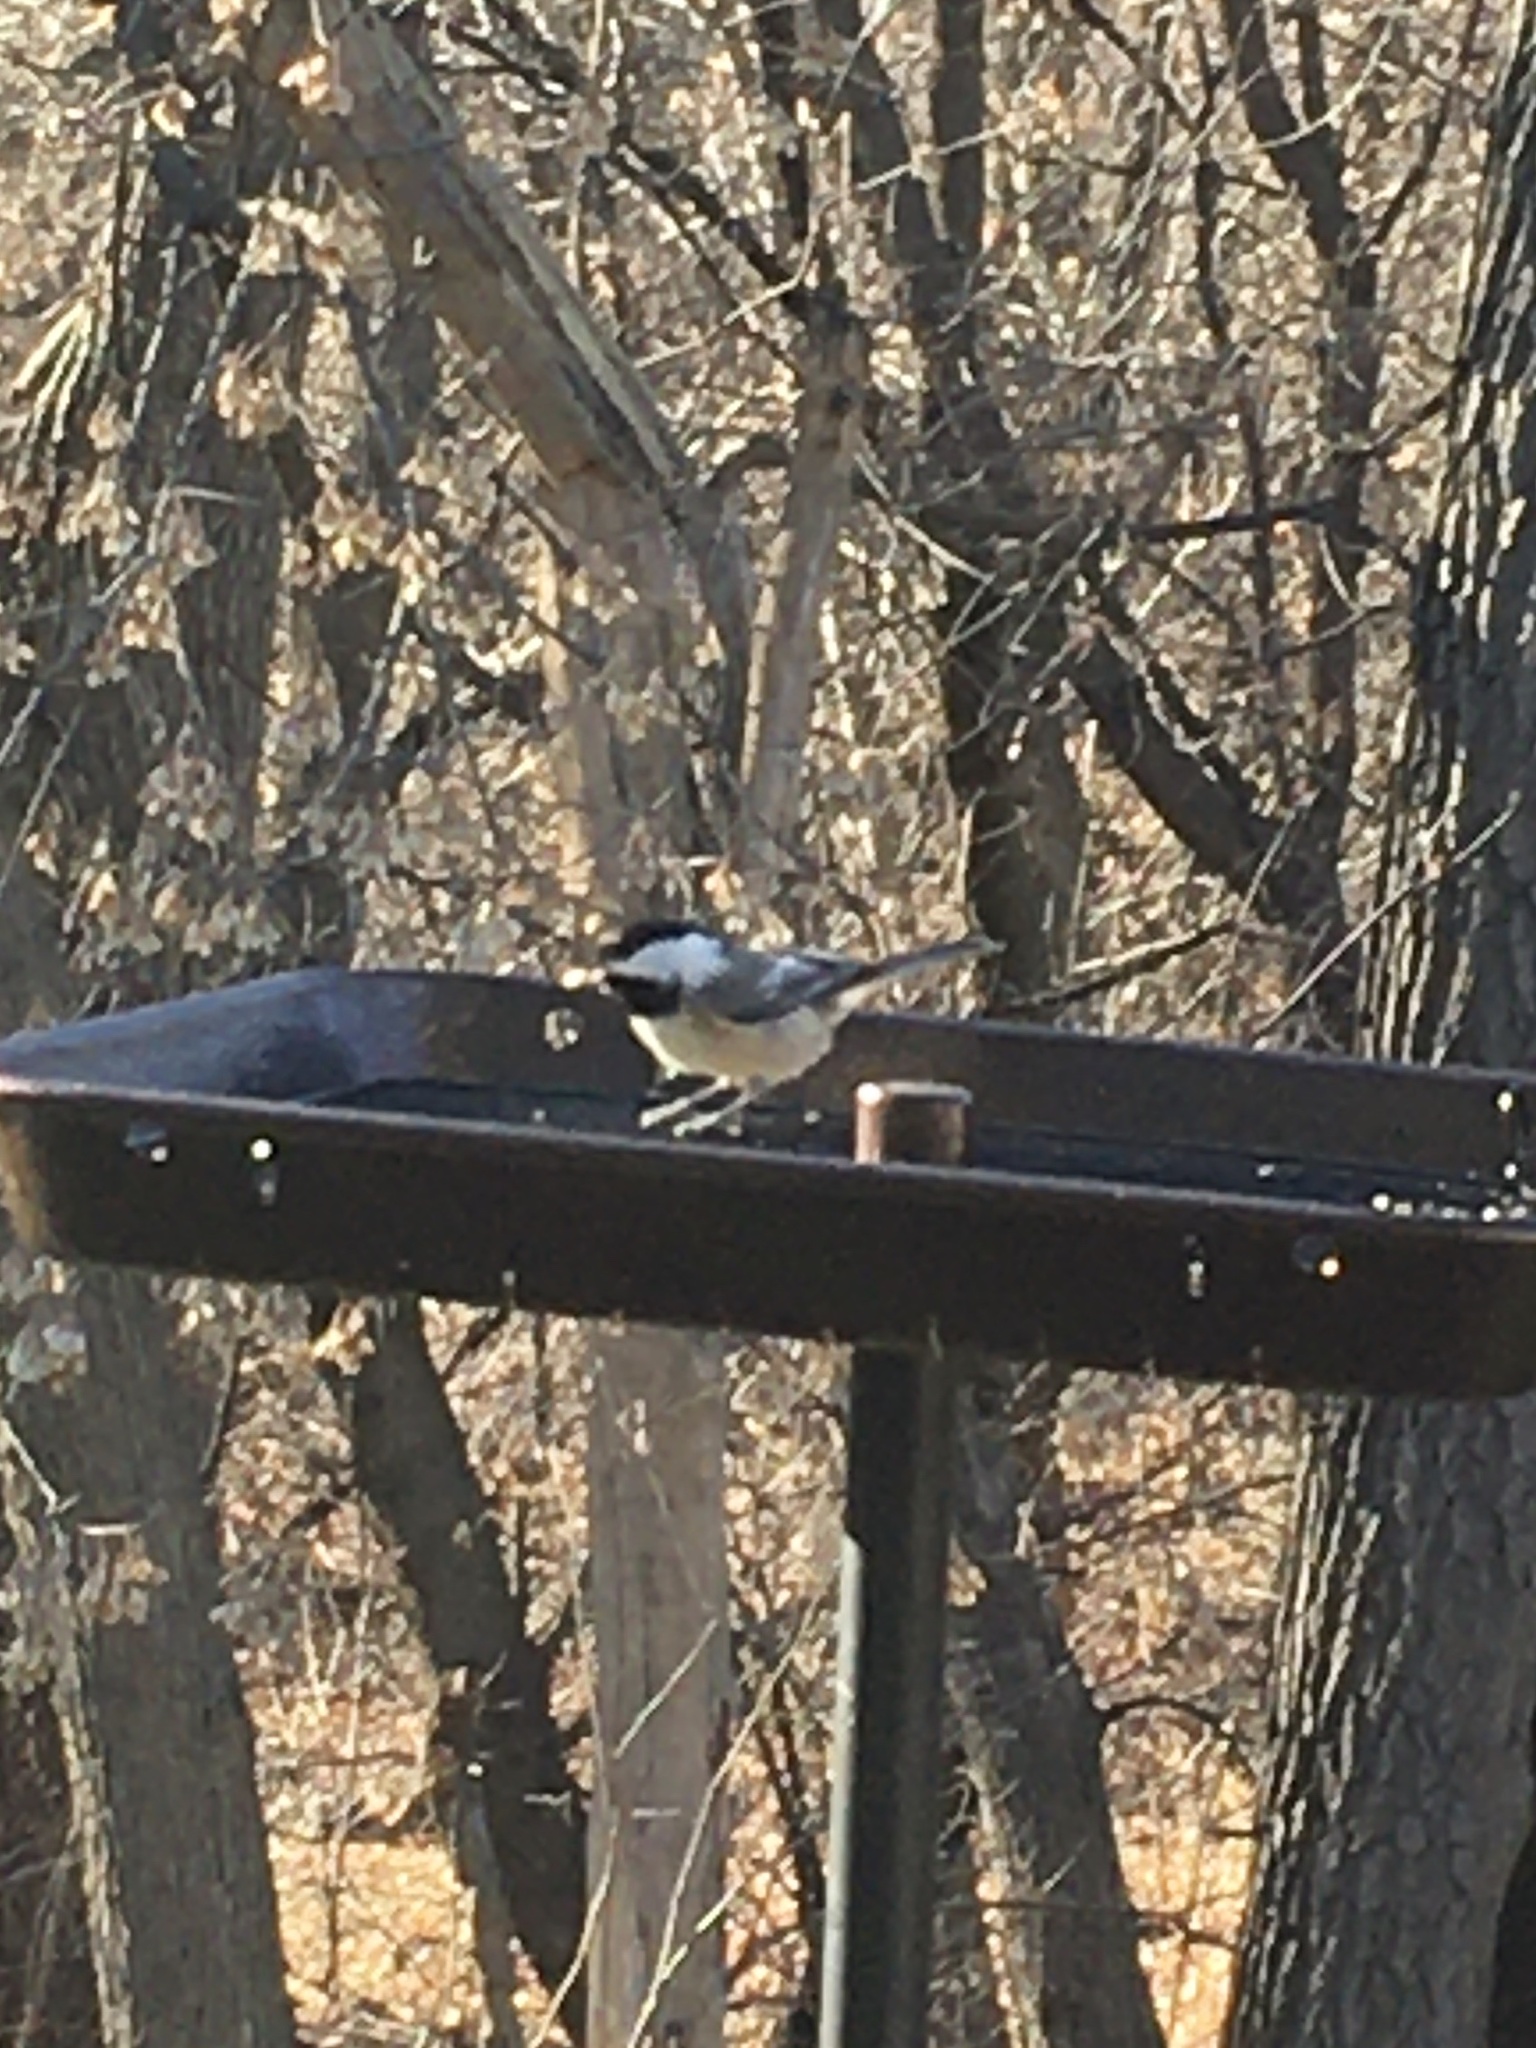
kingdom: Animalia
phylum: Chordata
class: Aves
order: Passeriformes
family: Paridae
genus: Poecile
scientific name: Poecile atricapillus
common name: Black-capped chickadee
